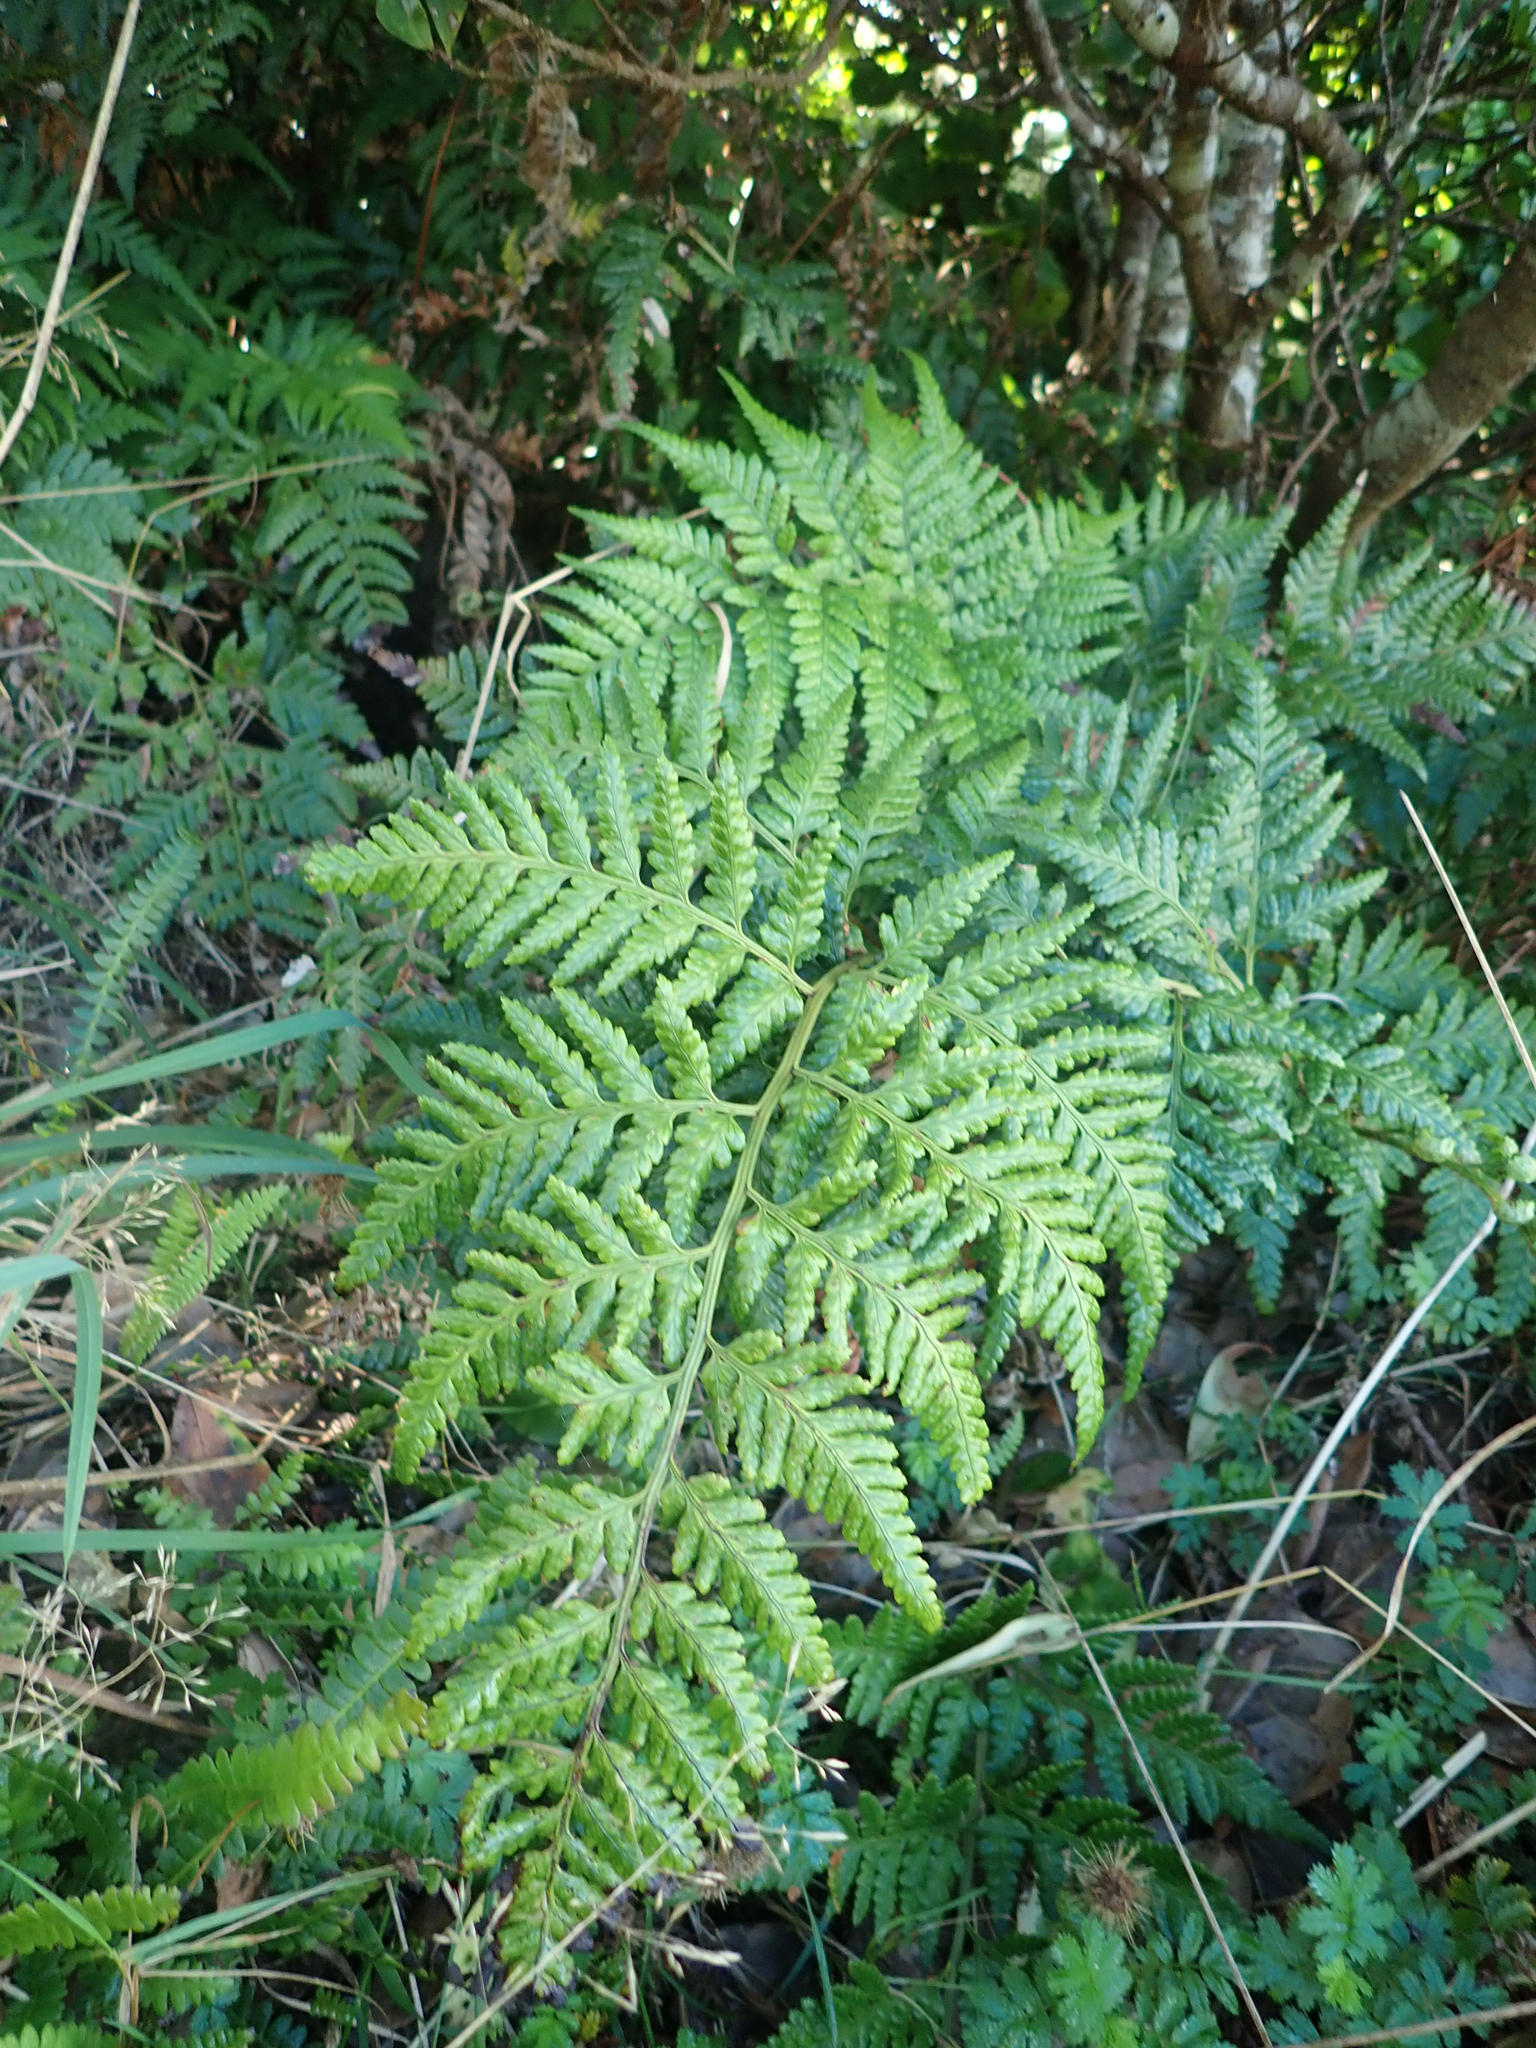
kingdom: Plantae
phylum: Tracheophyta
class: Polypodiopsida
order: Polypodiales
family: Dryopteridaceae
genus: Rumohra
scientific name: Rumohra adiantiformis
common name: Leather fern
